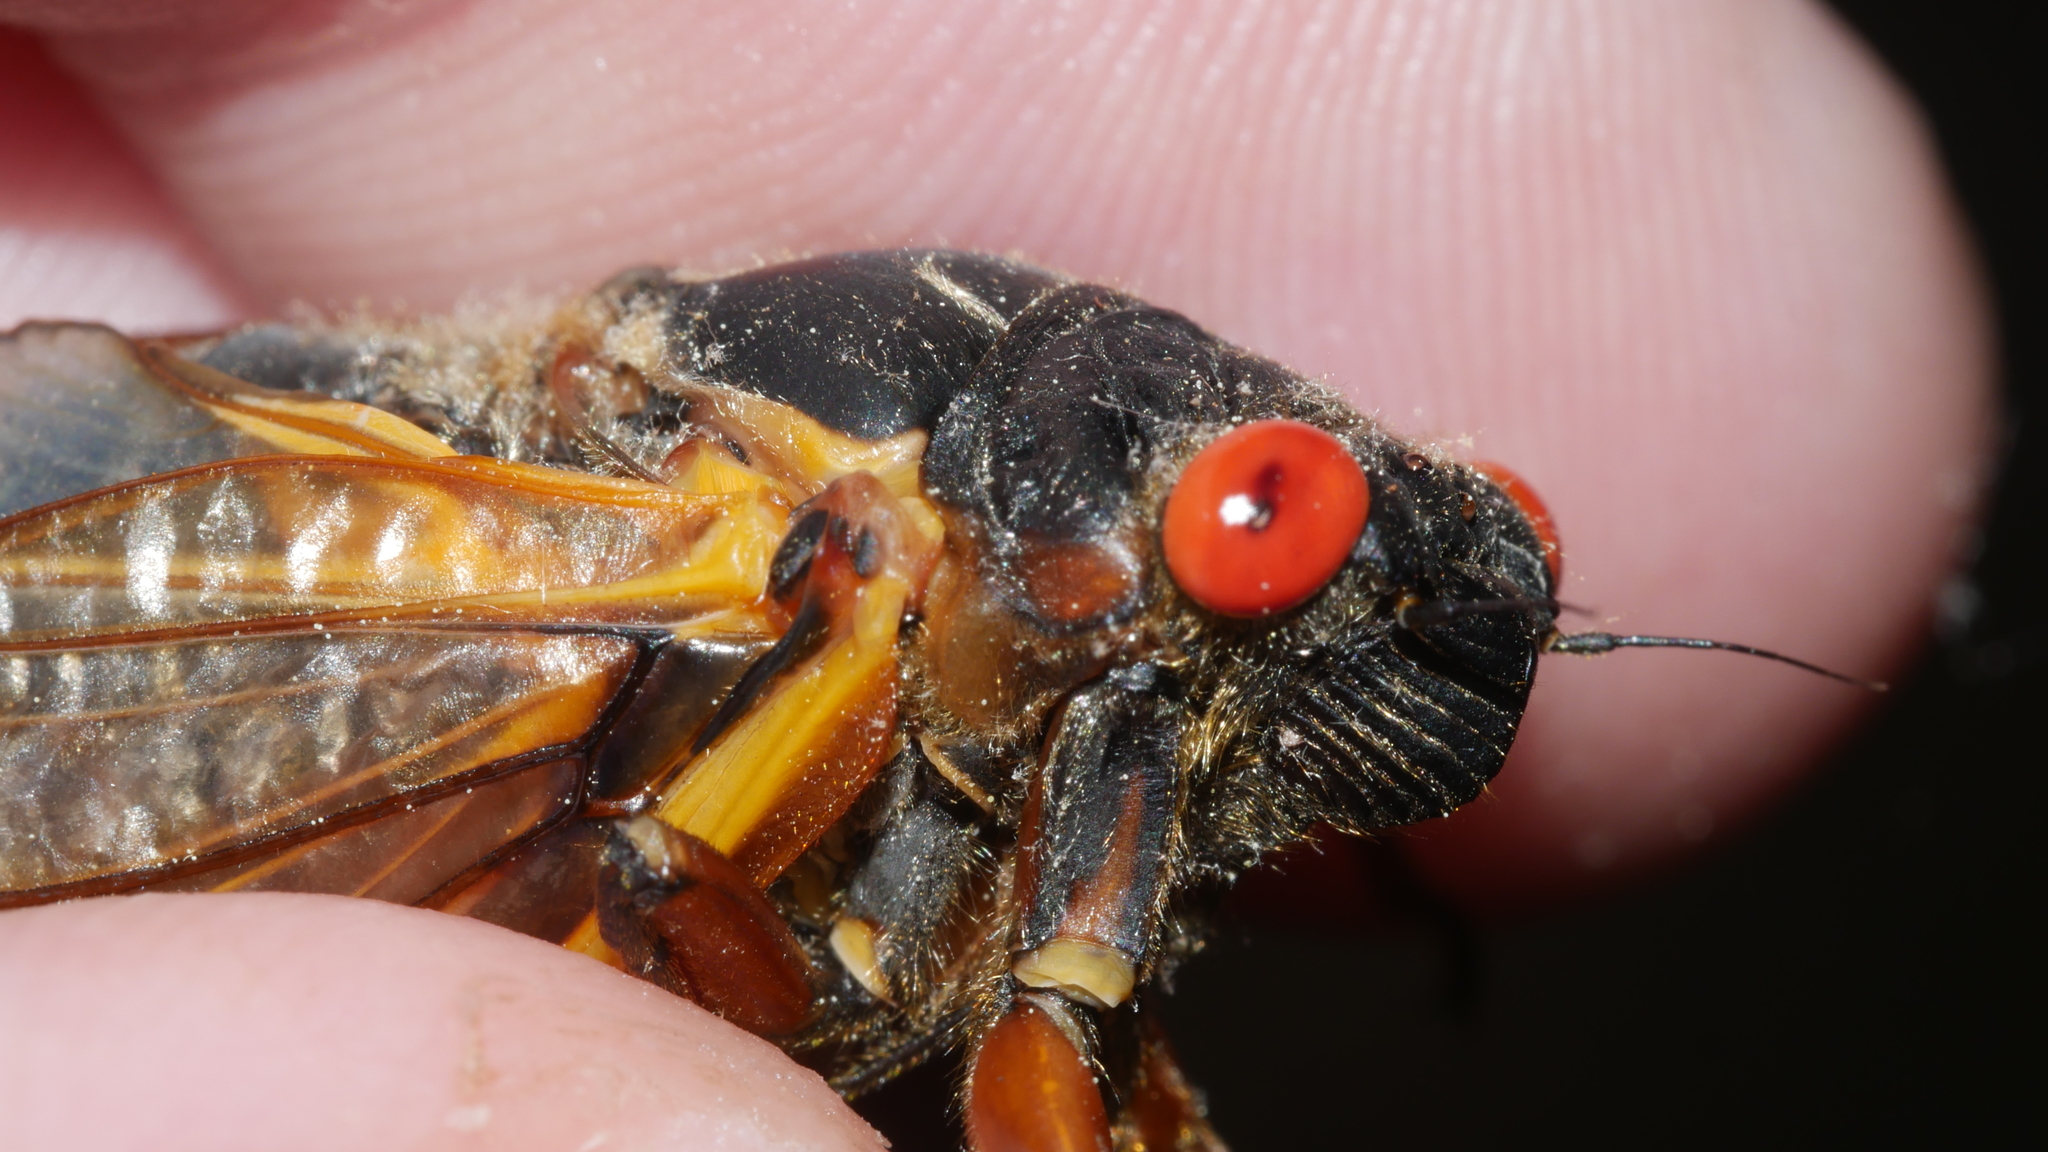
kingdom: Animalia
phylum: Arthropoda
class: Insecta
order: Hemiptera
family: Cicadidae
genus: Magicicada
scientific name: Magicicada septendecim
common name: Periodical cicada
